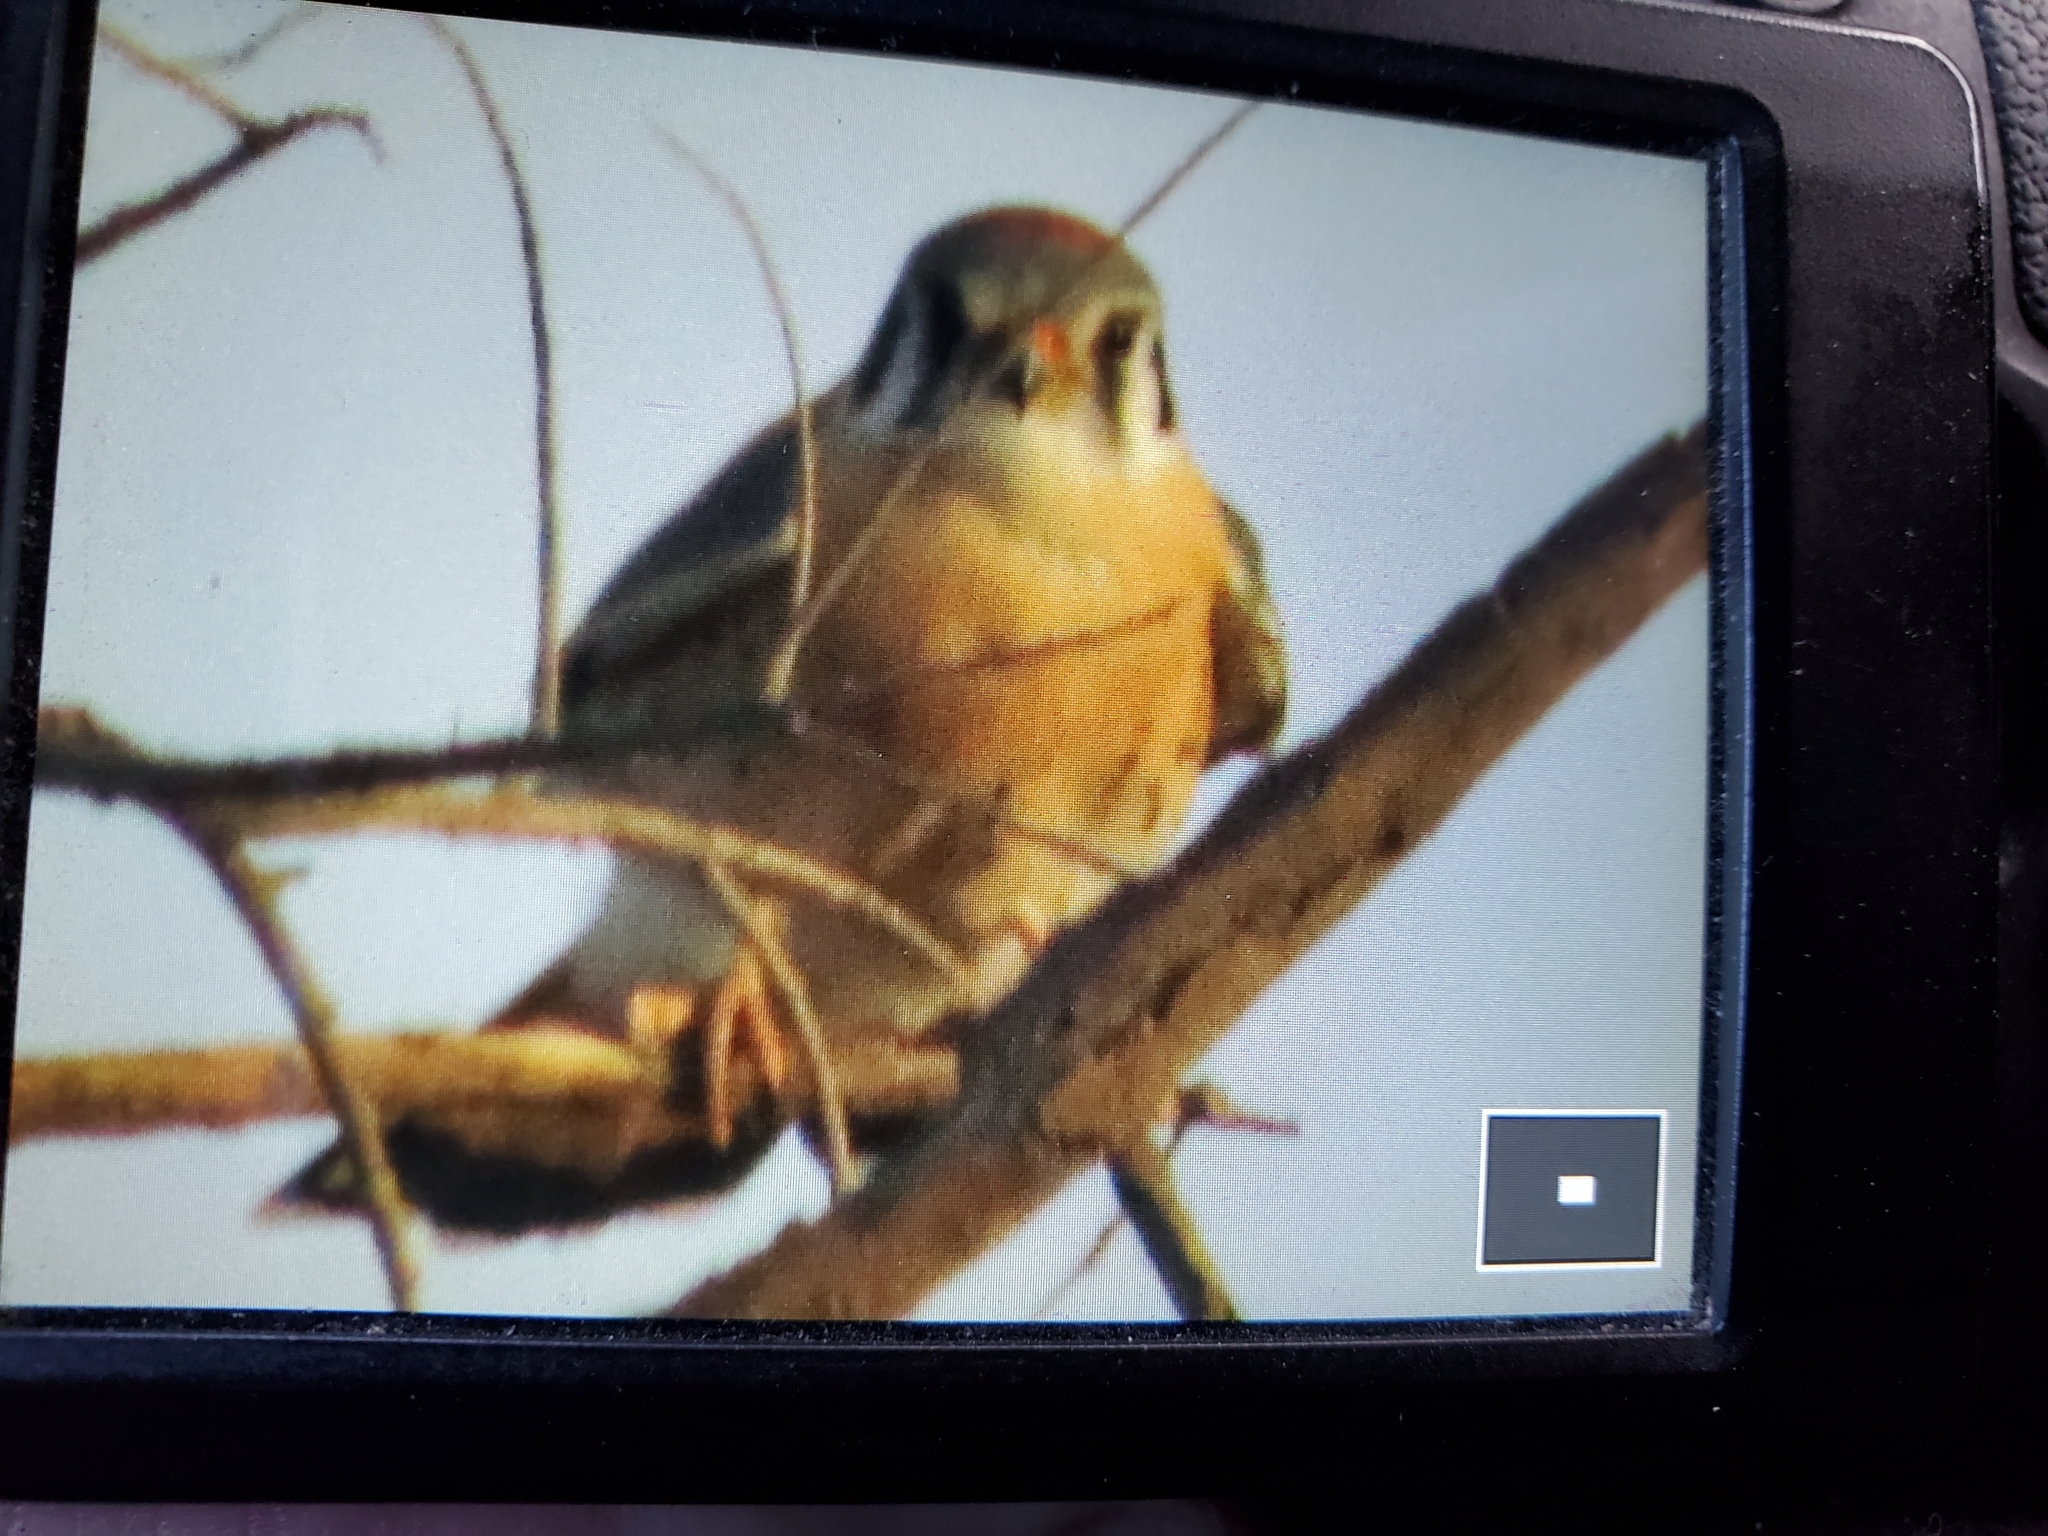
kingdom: Animalia
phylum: Chordata
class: Aves
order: Falconiformes
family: Falconidae
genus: Falco
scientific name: Falco sparverius
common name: American kestrel
